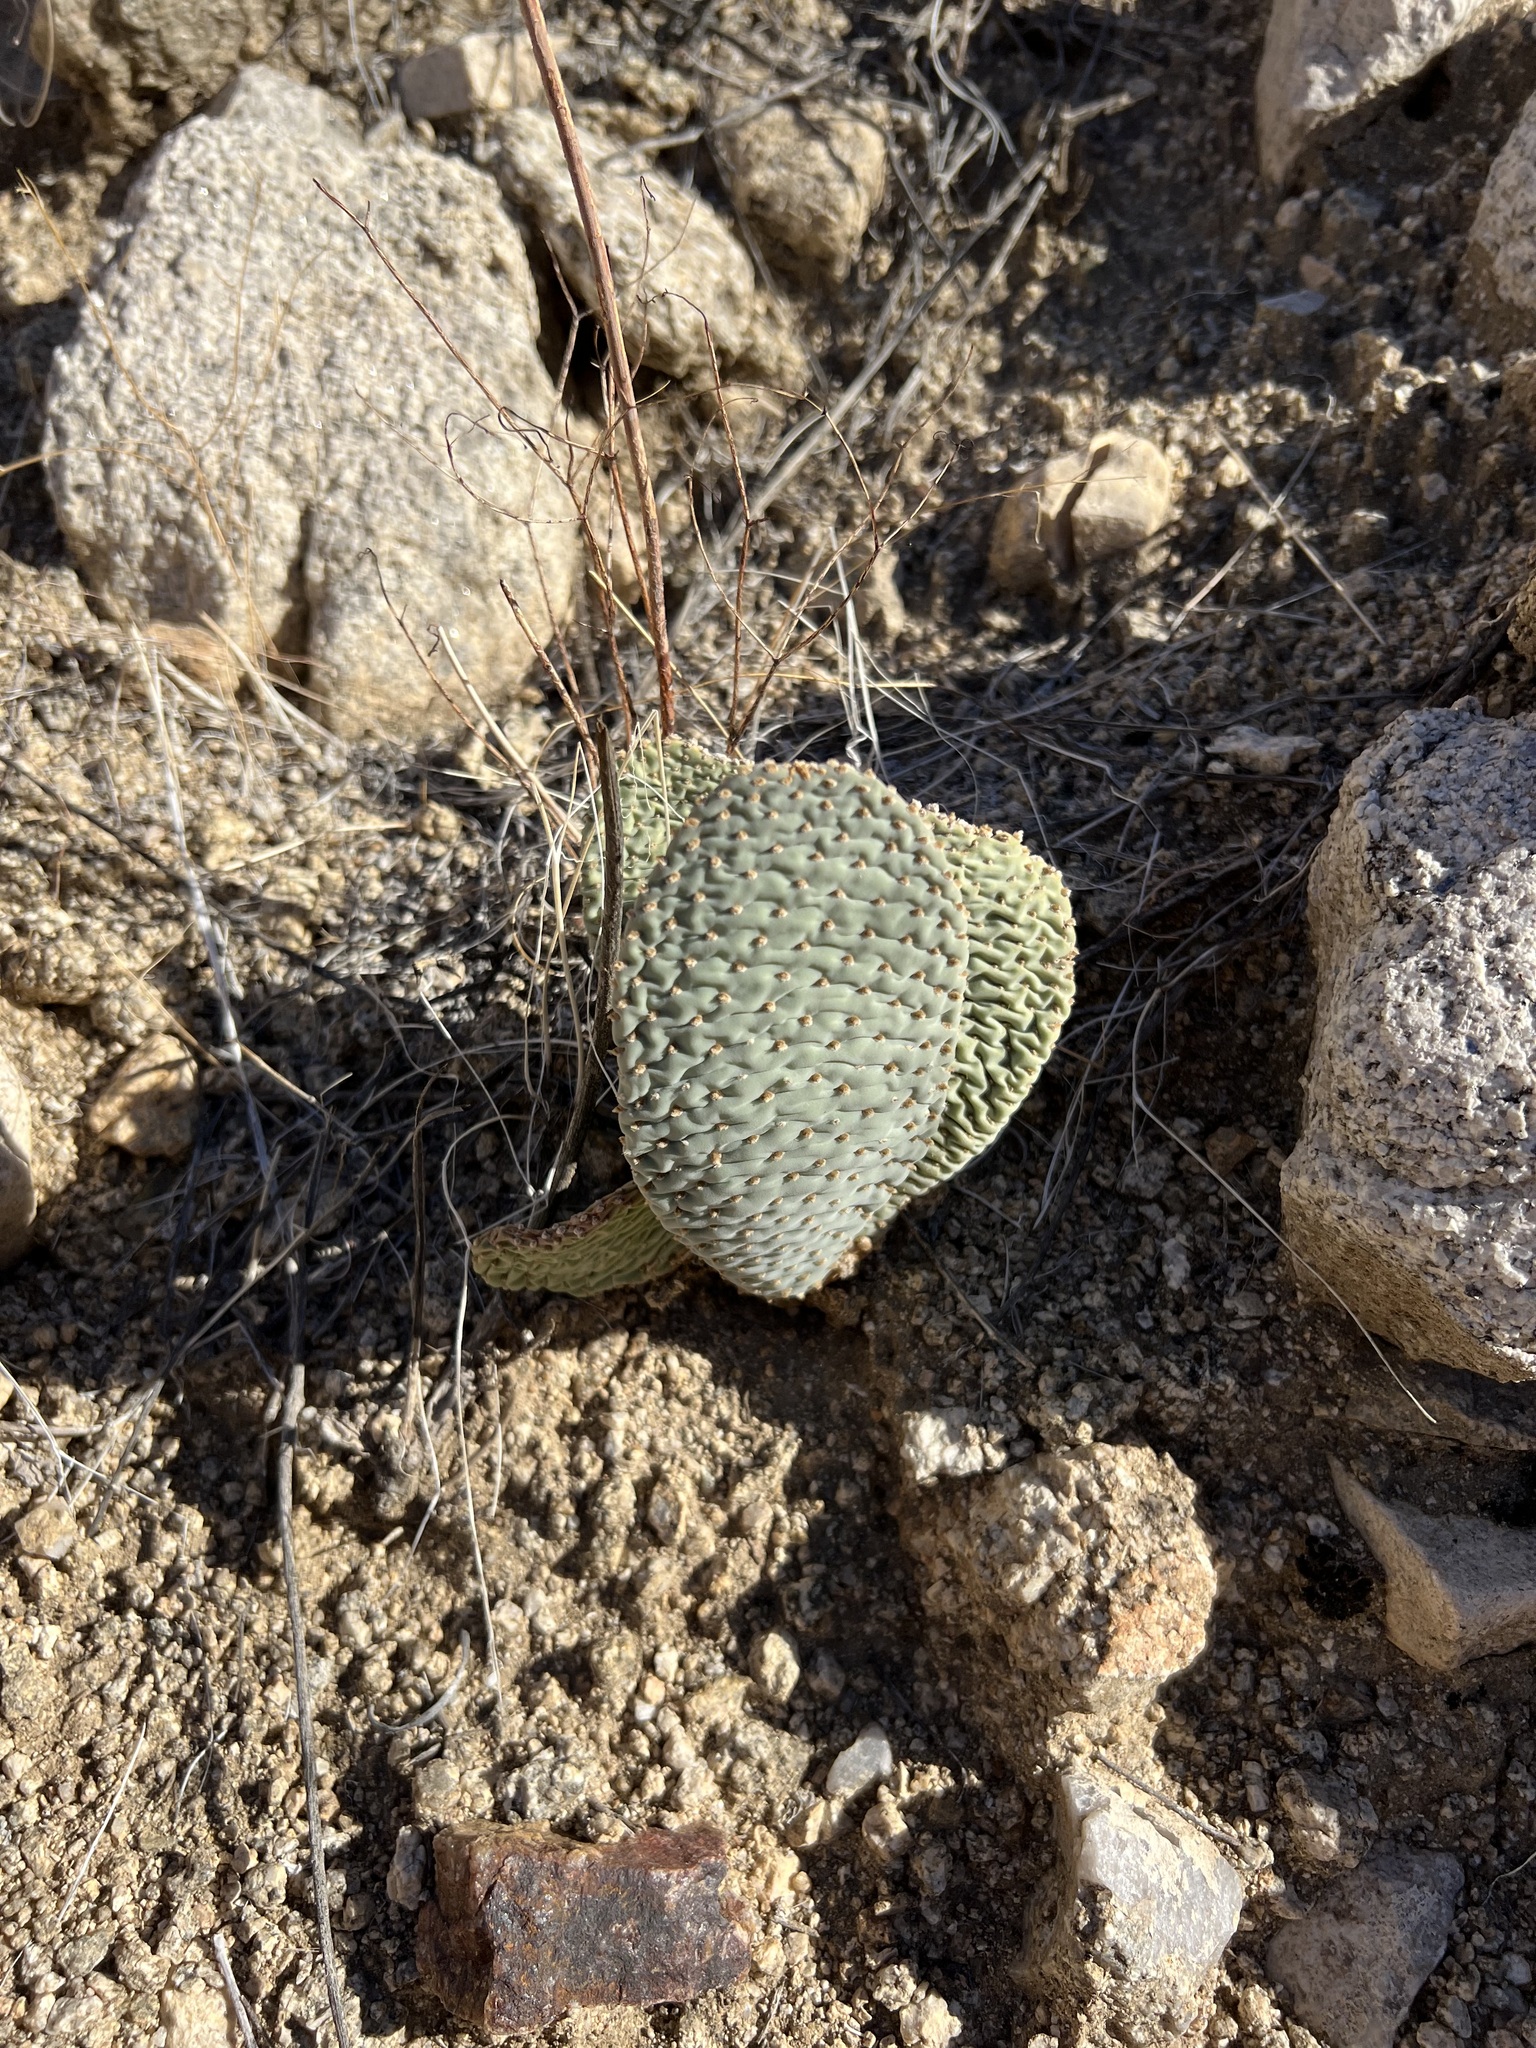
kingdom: Plantae
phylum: Tracheophyta
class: Magnoliopsida
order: Caryophyllales
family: Cactaceae
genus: Opuntia
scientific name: Opuntia basilaris
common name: Beavertail prickly-pear
